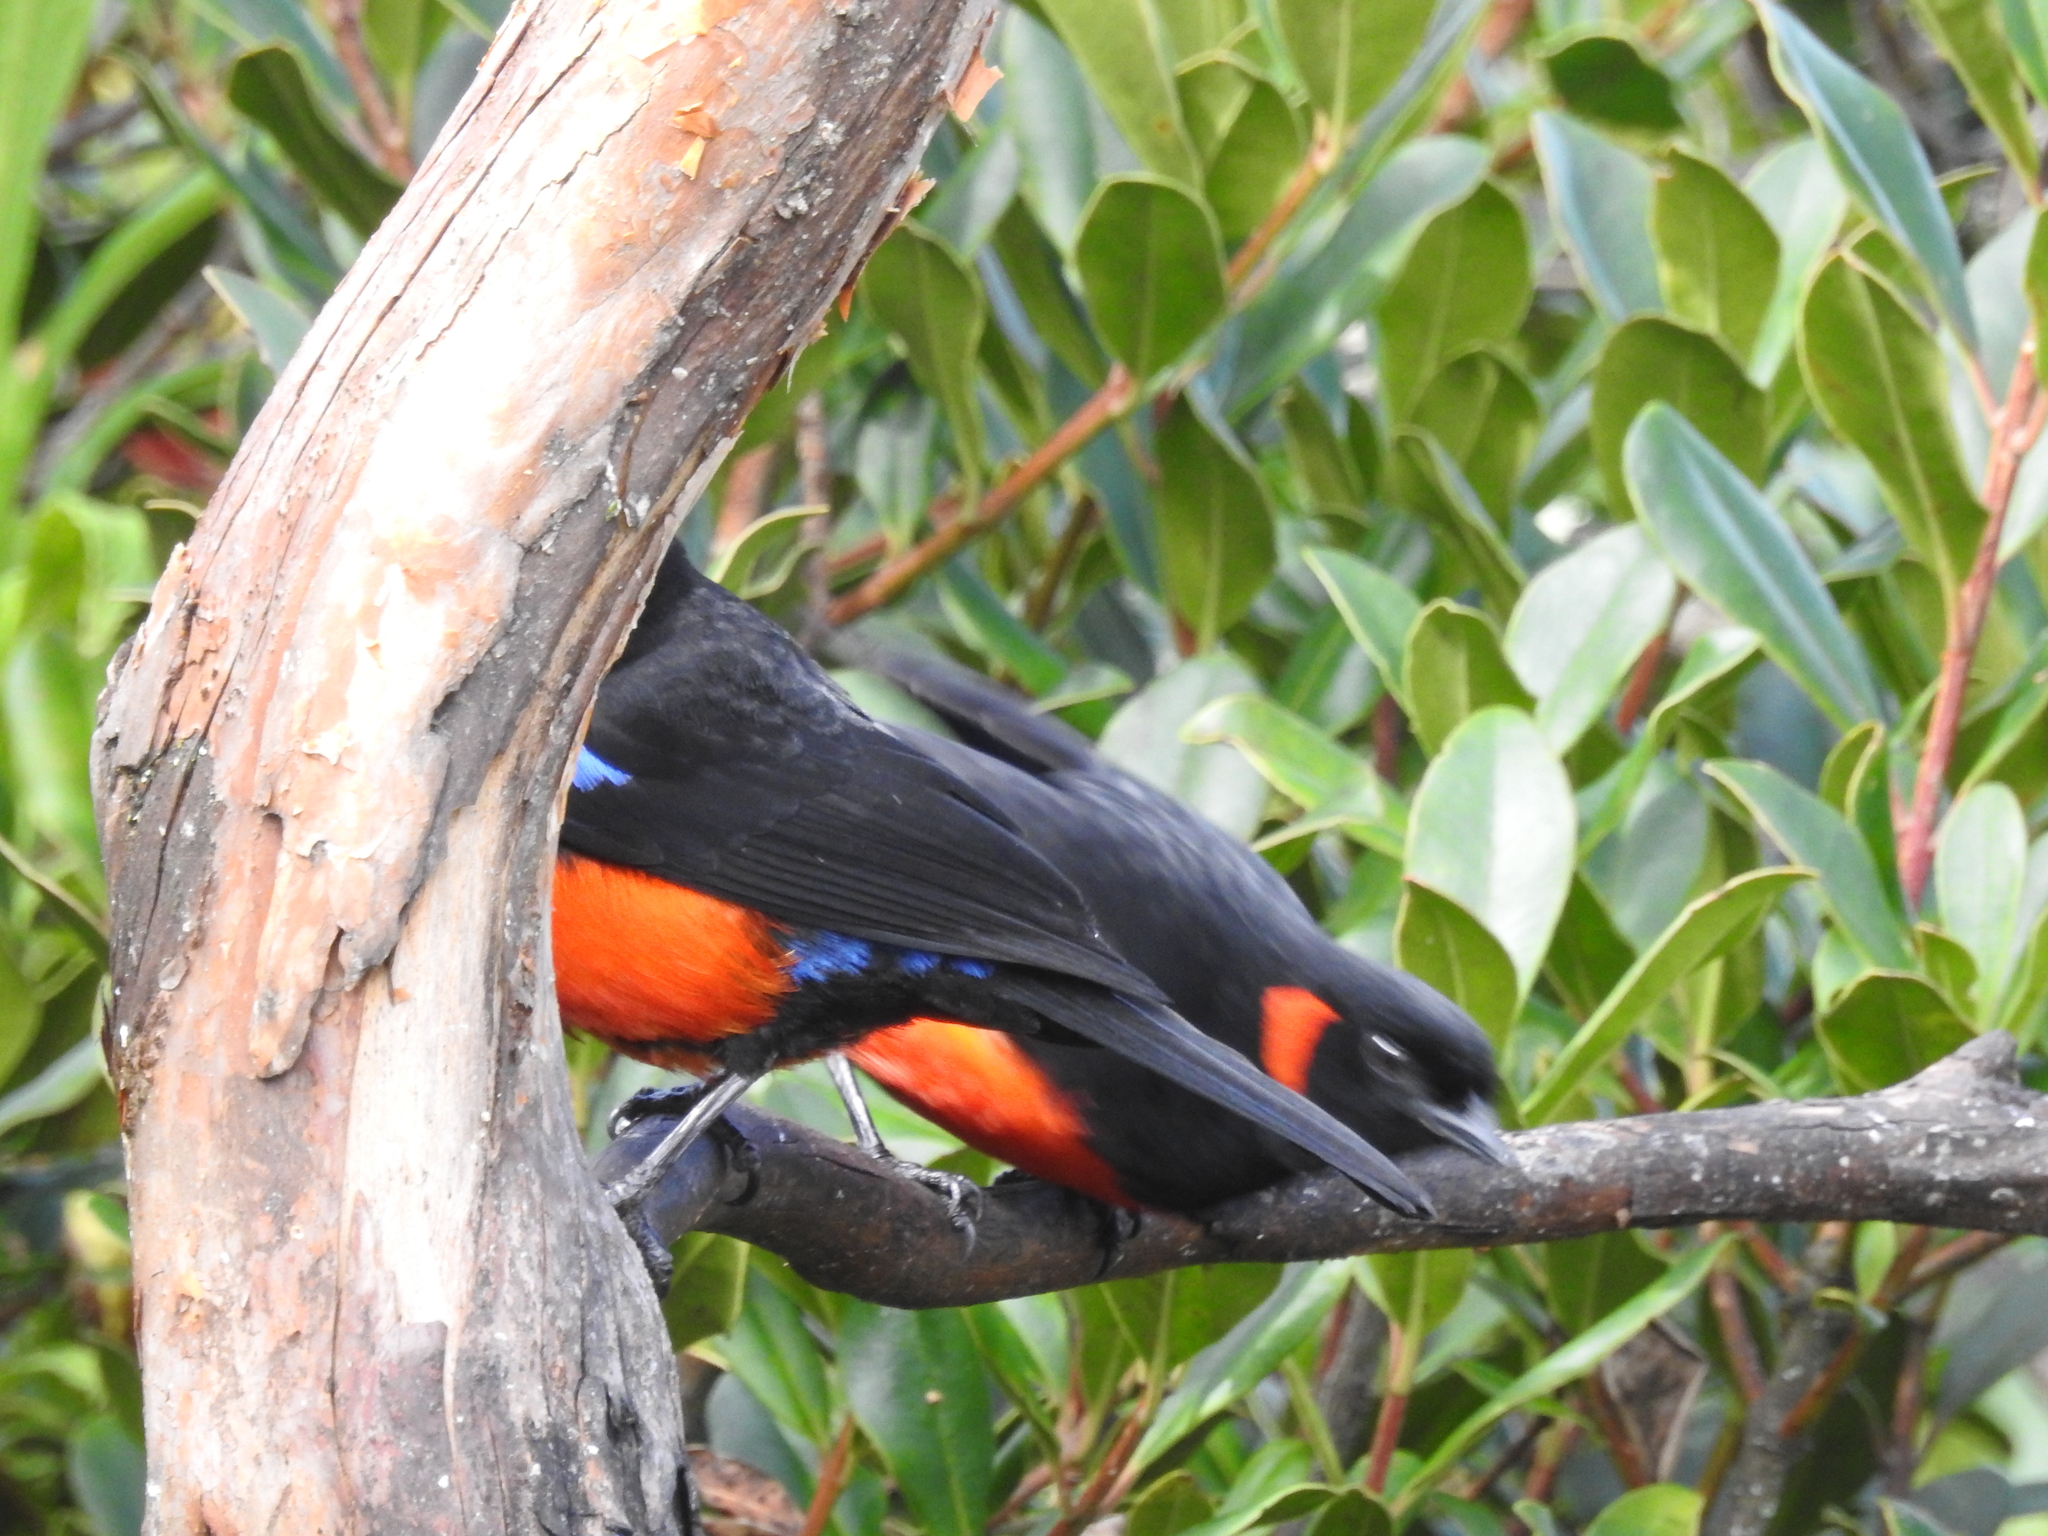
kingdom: Animalia
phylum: Chordata
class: Aves
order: Passeriformes
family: Thraupidae
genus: Anisognathus
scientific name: Anisognathus igniventris
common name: Scarlet-bellied mountain tanager
